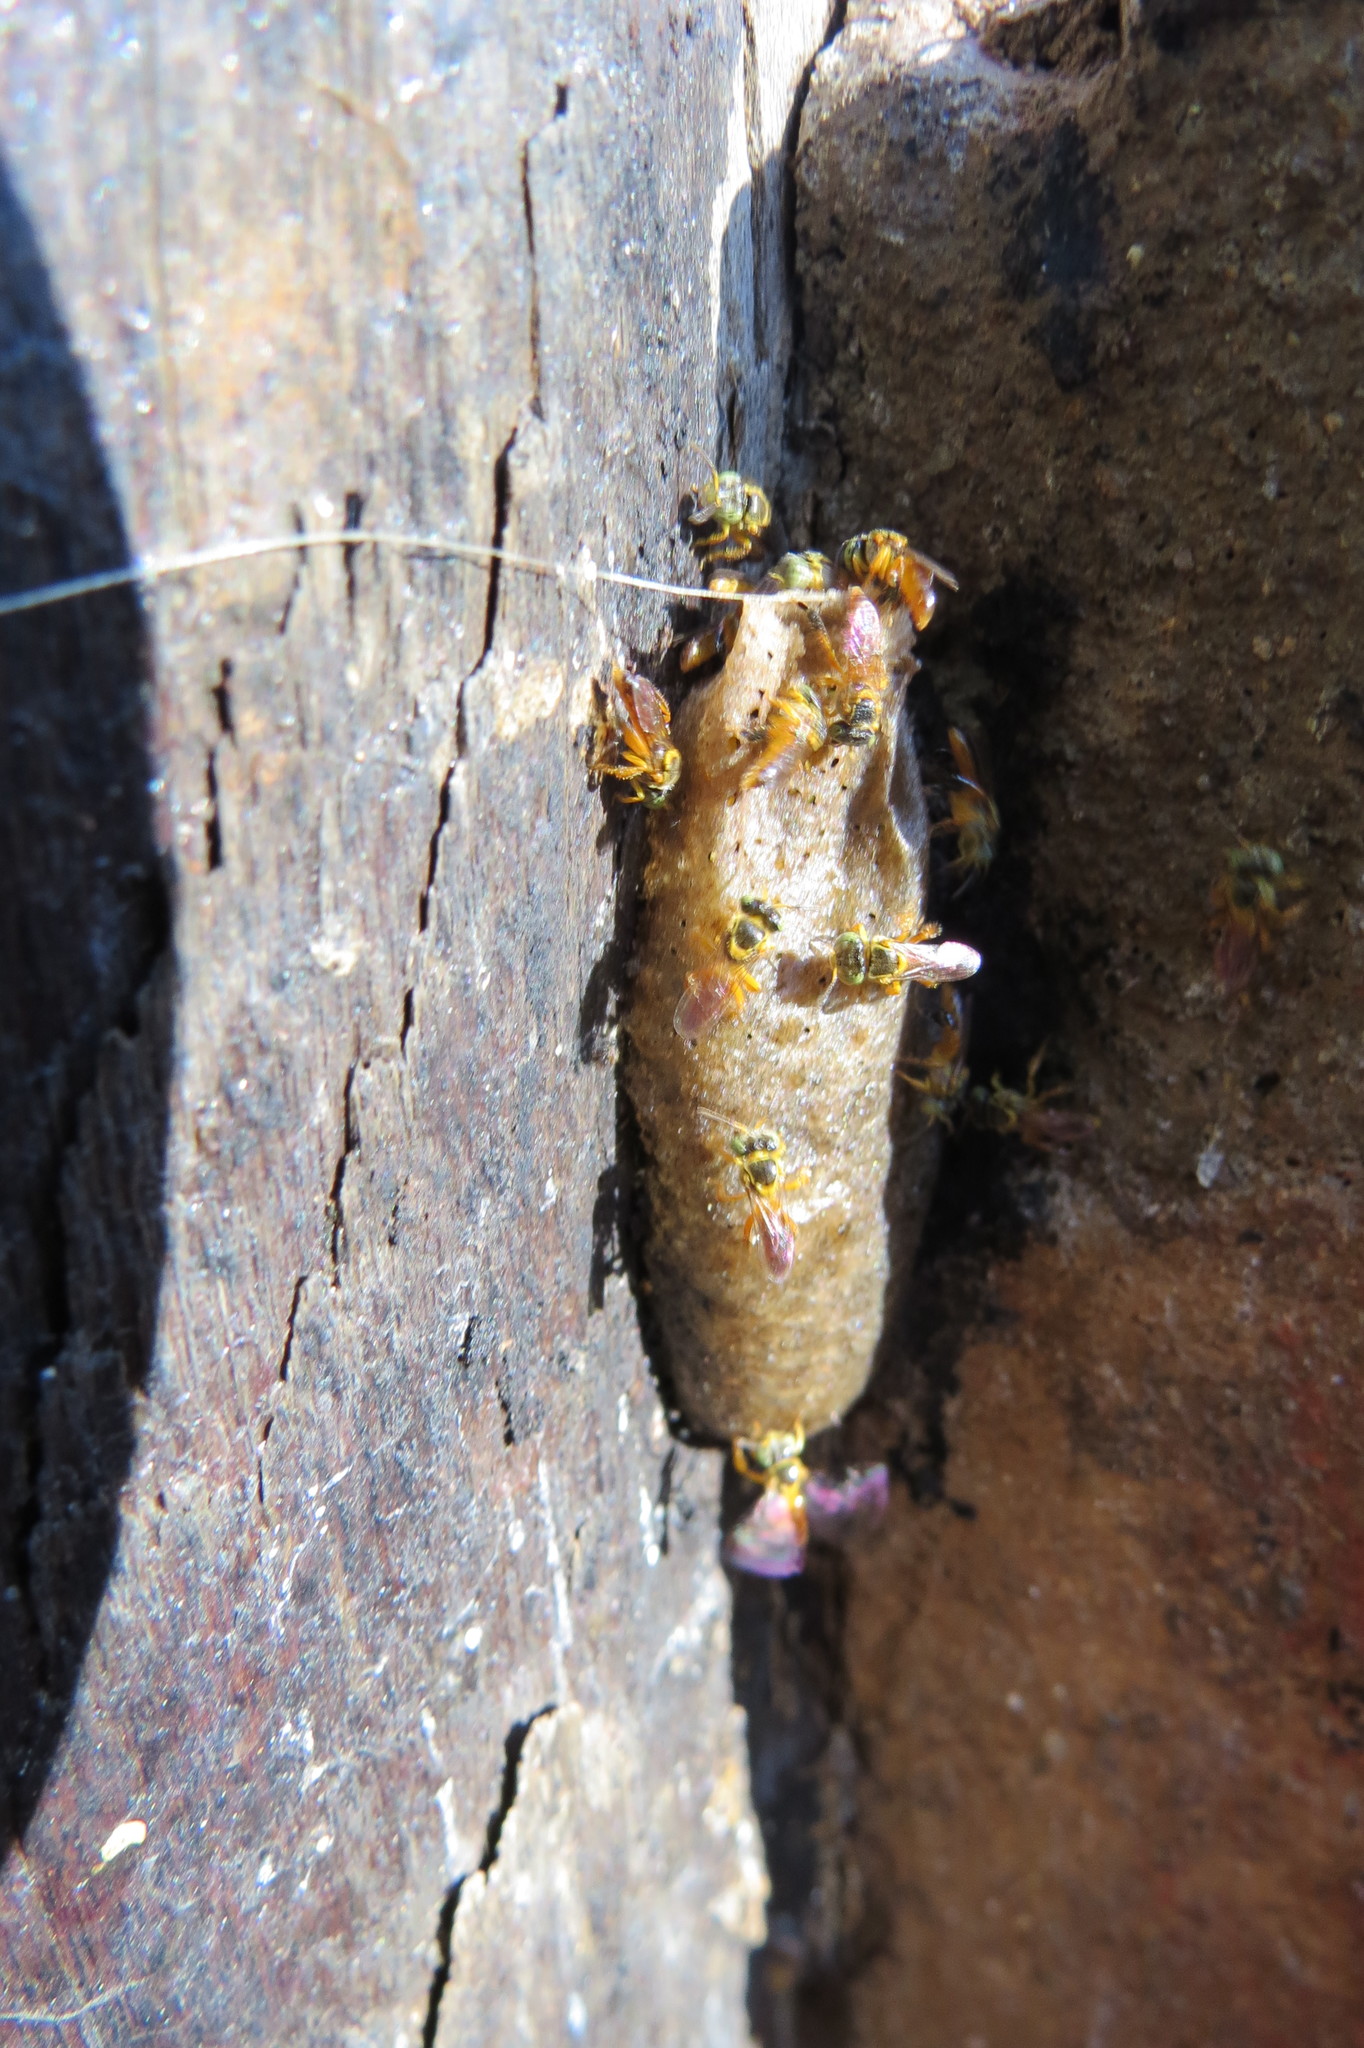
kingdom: Animalia
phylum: Arthropoda
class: Insecta
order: Hymenoptera
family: Apidae
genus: Tetragonisca
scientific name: Tetragonisca angustula
